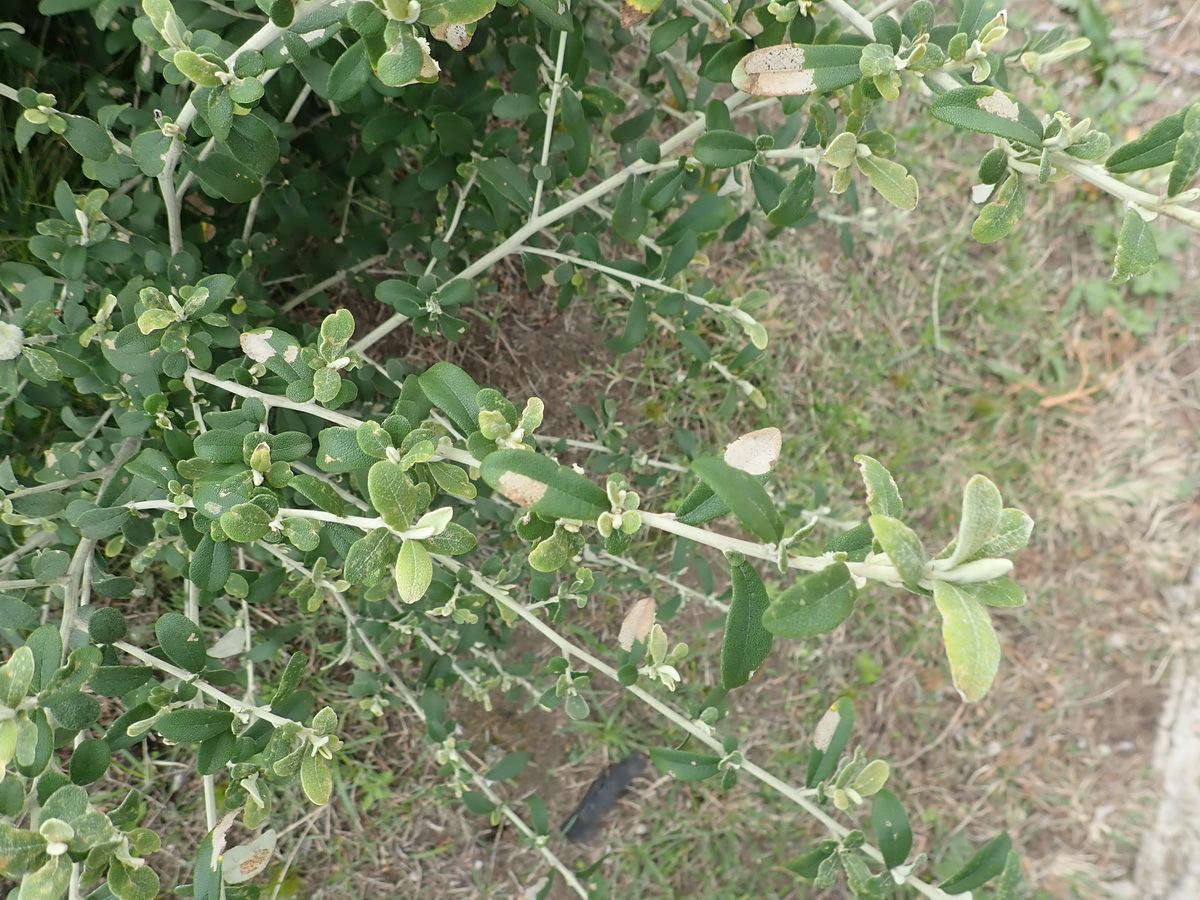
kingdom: Plantae
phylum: Tracheophyta
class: Magnoliopsida
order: Asterales
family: Asteraceae
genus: Tarchonanthus
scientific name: Tarchonanthus littoralis
